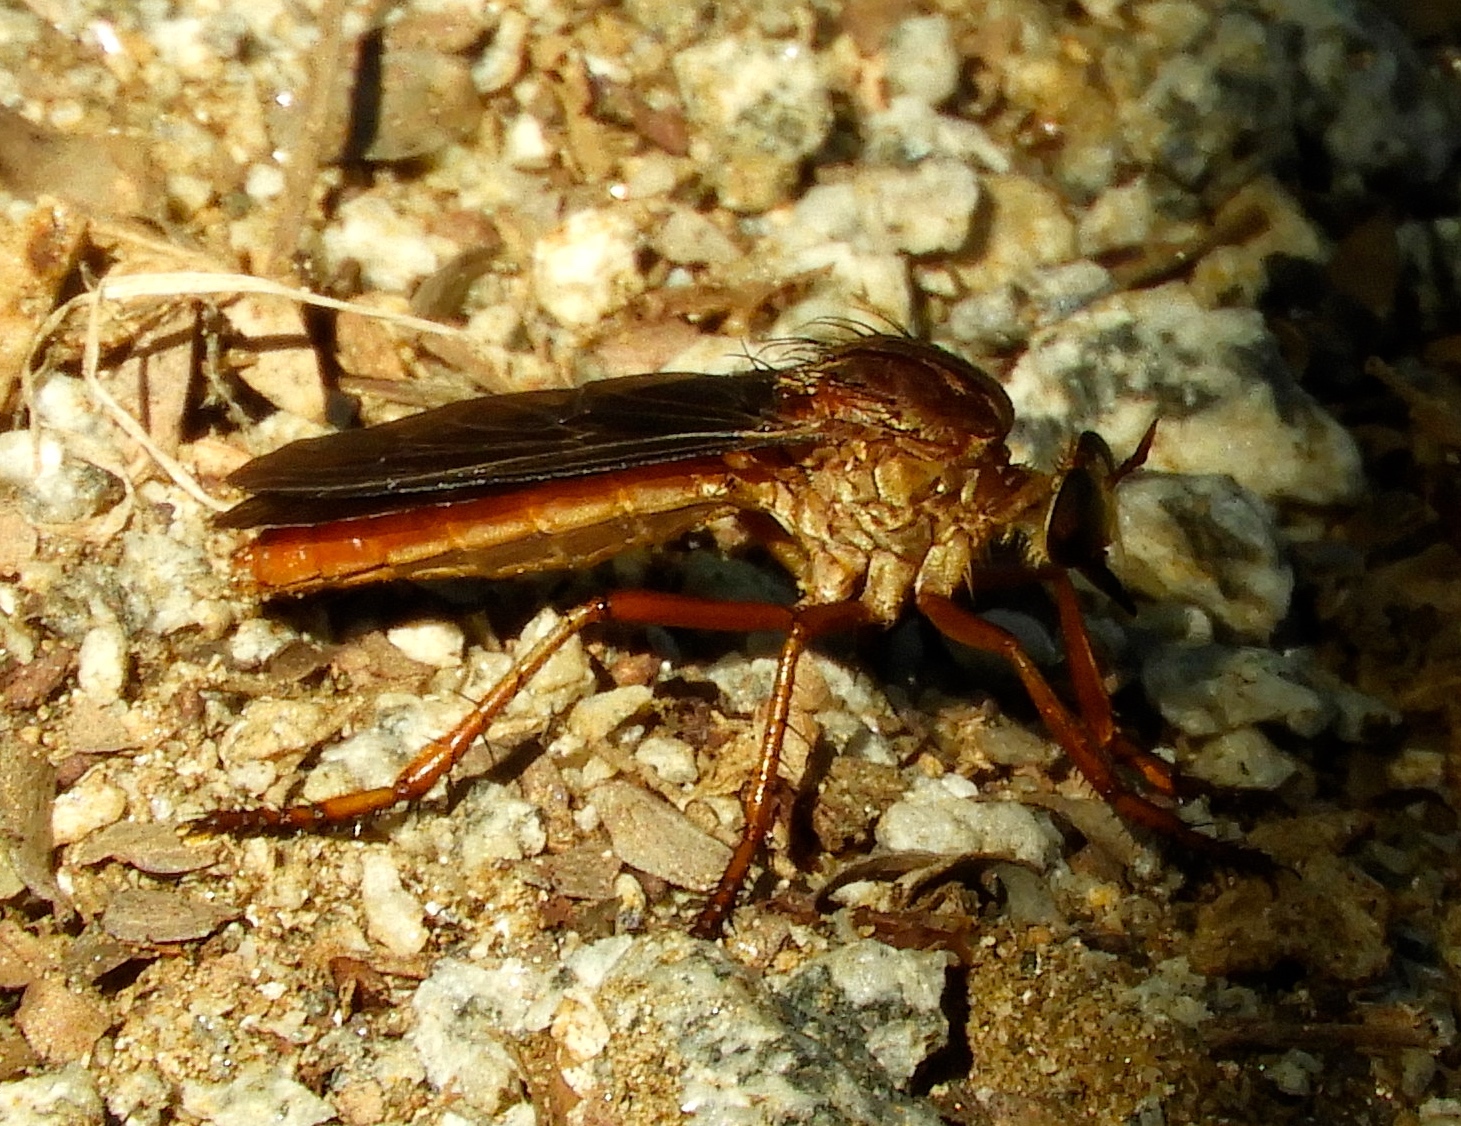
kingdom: Animalia
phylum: Arthropoda
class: Insecta
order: Diptera
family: Asilidae
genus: Diogmites
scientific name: Diogmites
